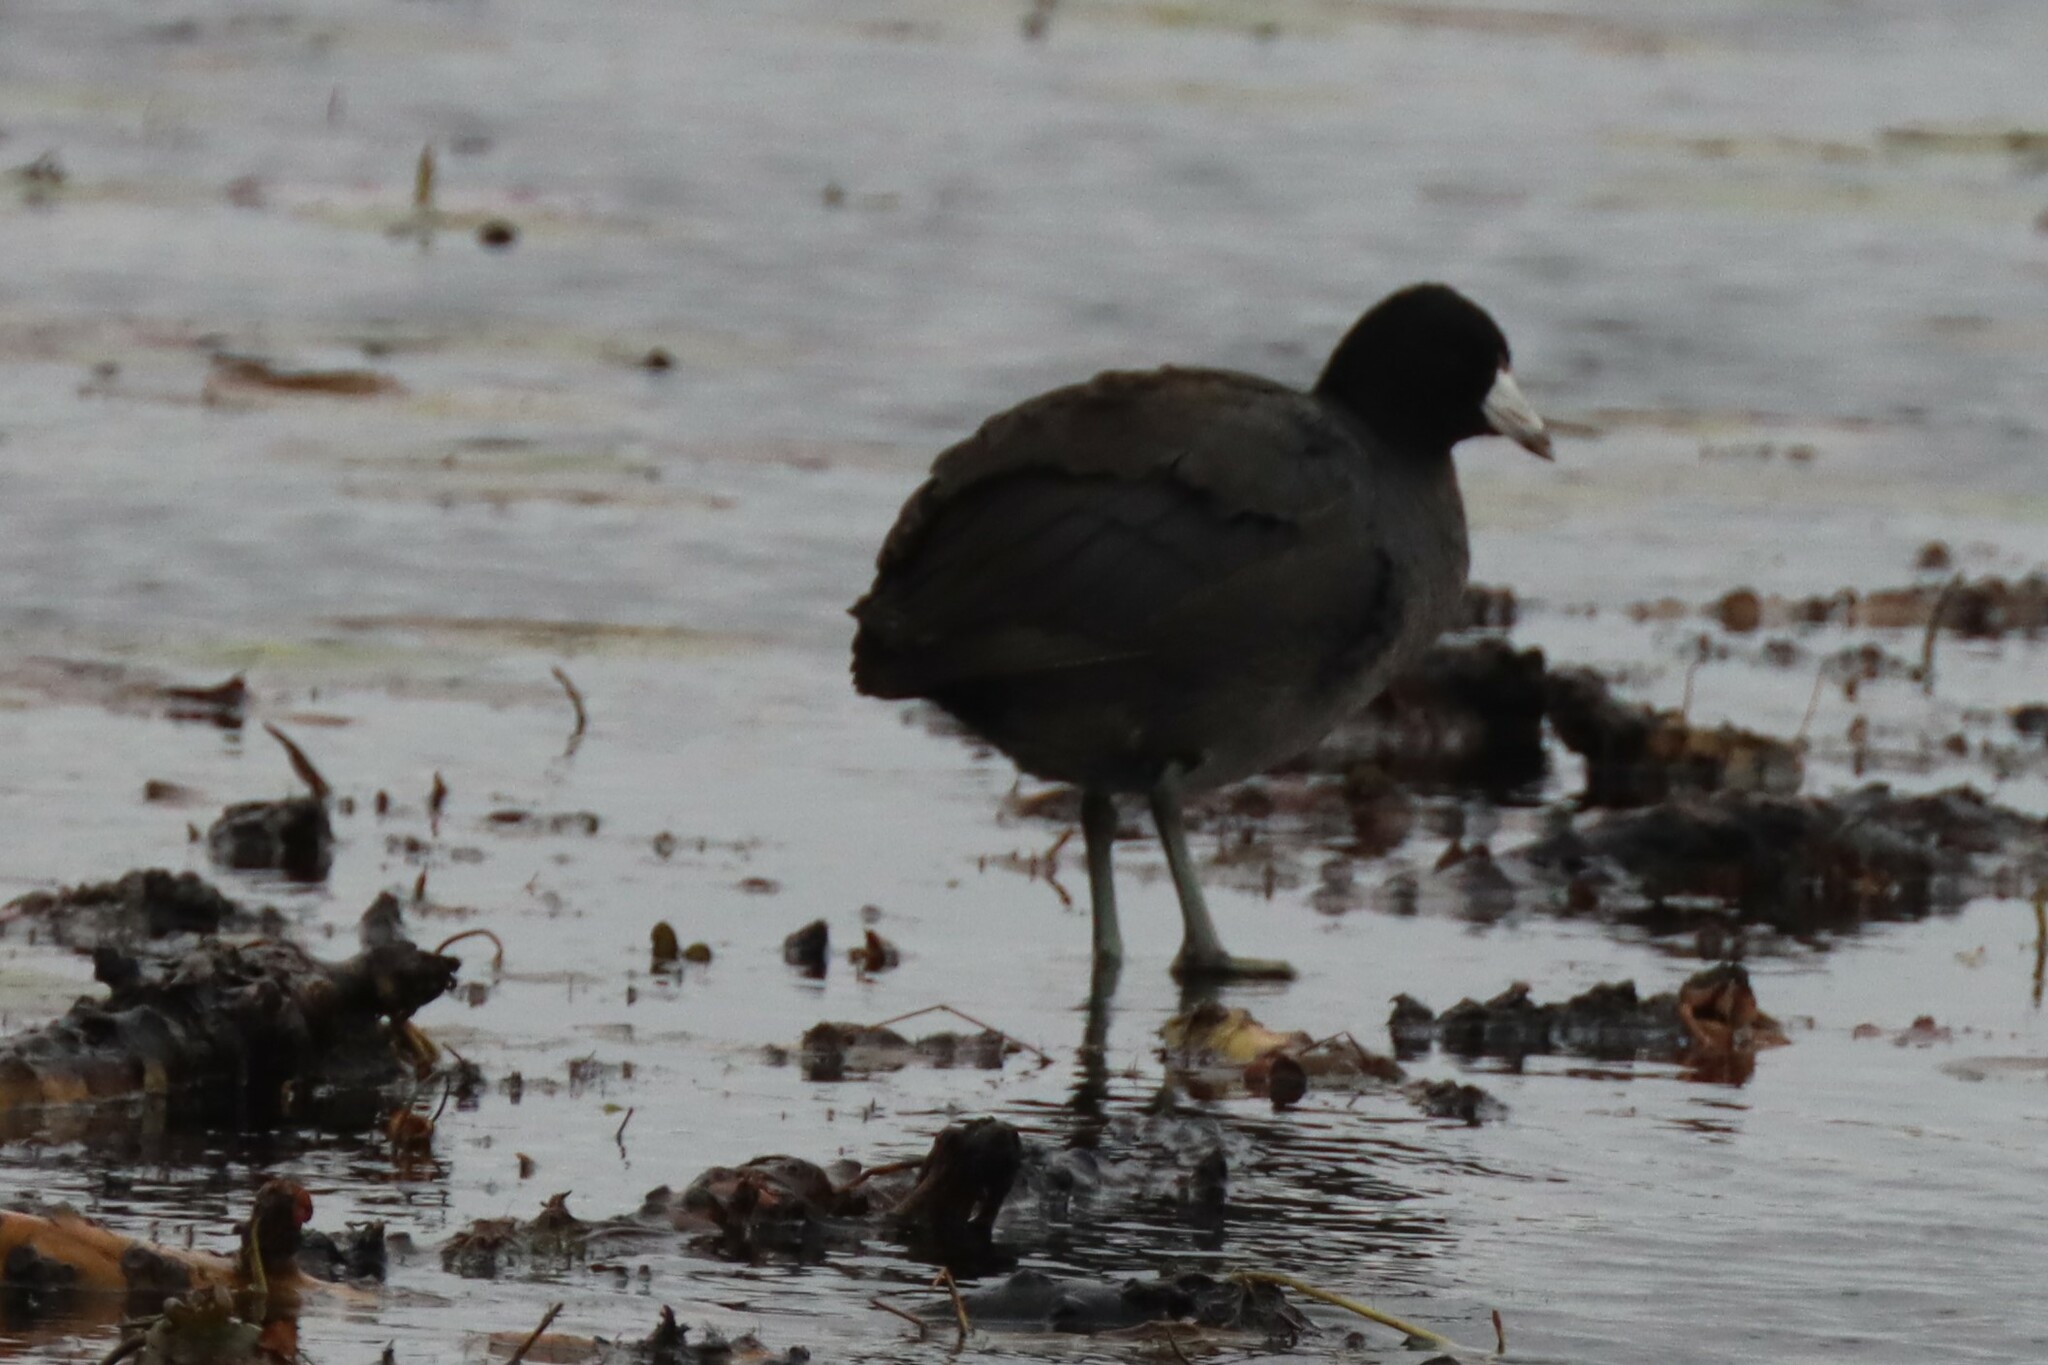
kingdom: Animalia
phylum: Chordata
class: Aves
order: Gruiformes
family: Rallidae
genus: Fulica
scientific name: Fulica americana
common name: American coot
